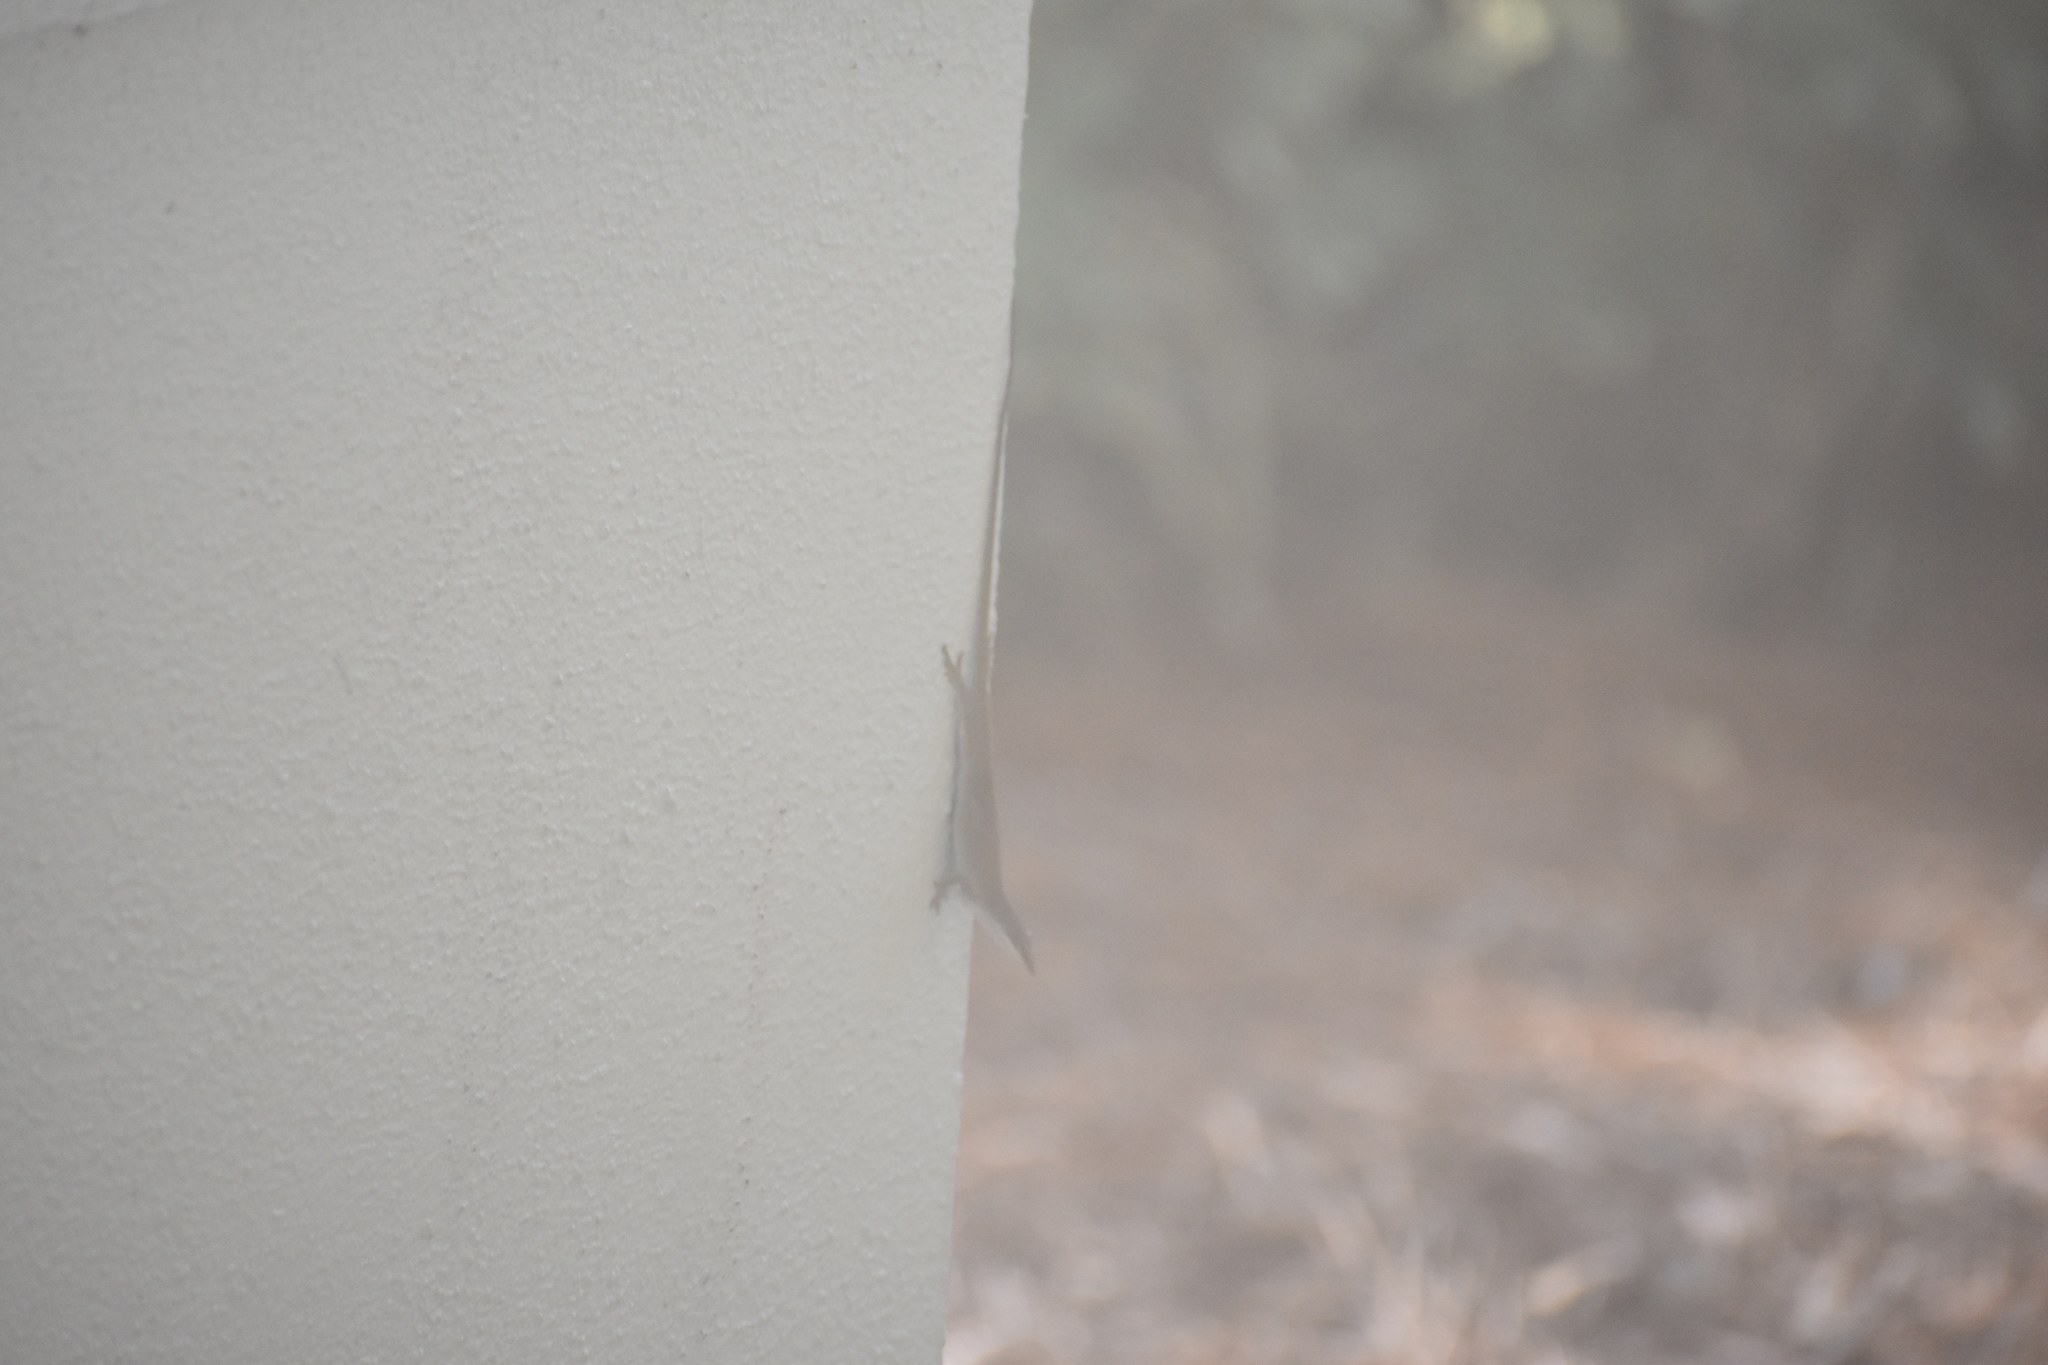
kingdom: Animalia
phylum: Chordata
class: Squamata
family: Dactyloidae
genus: Anolis
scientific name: Anolis carolinensis
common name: Green anole
